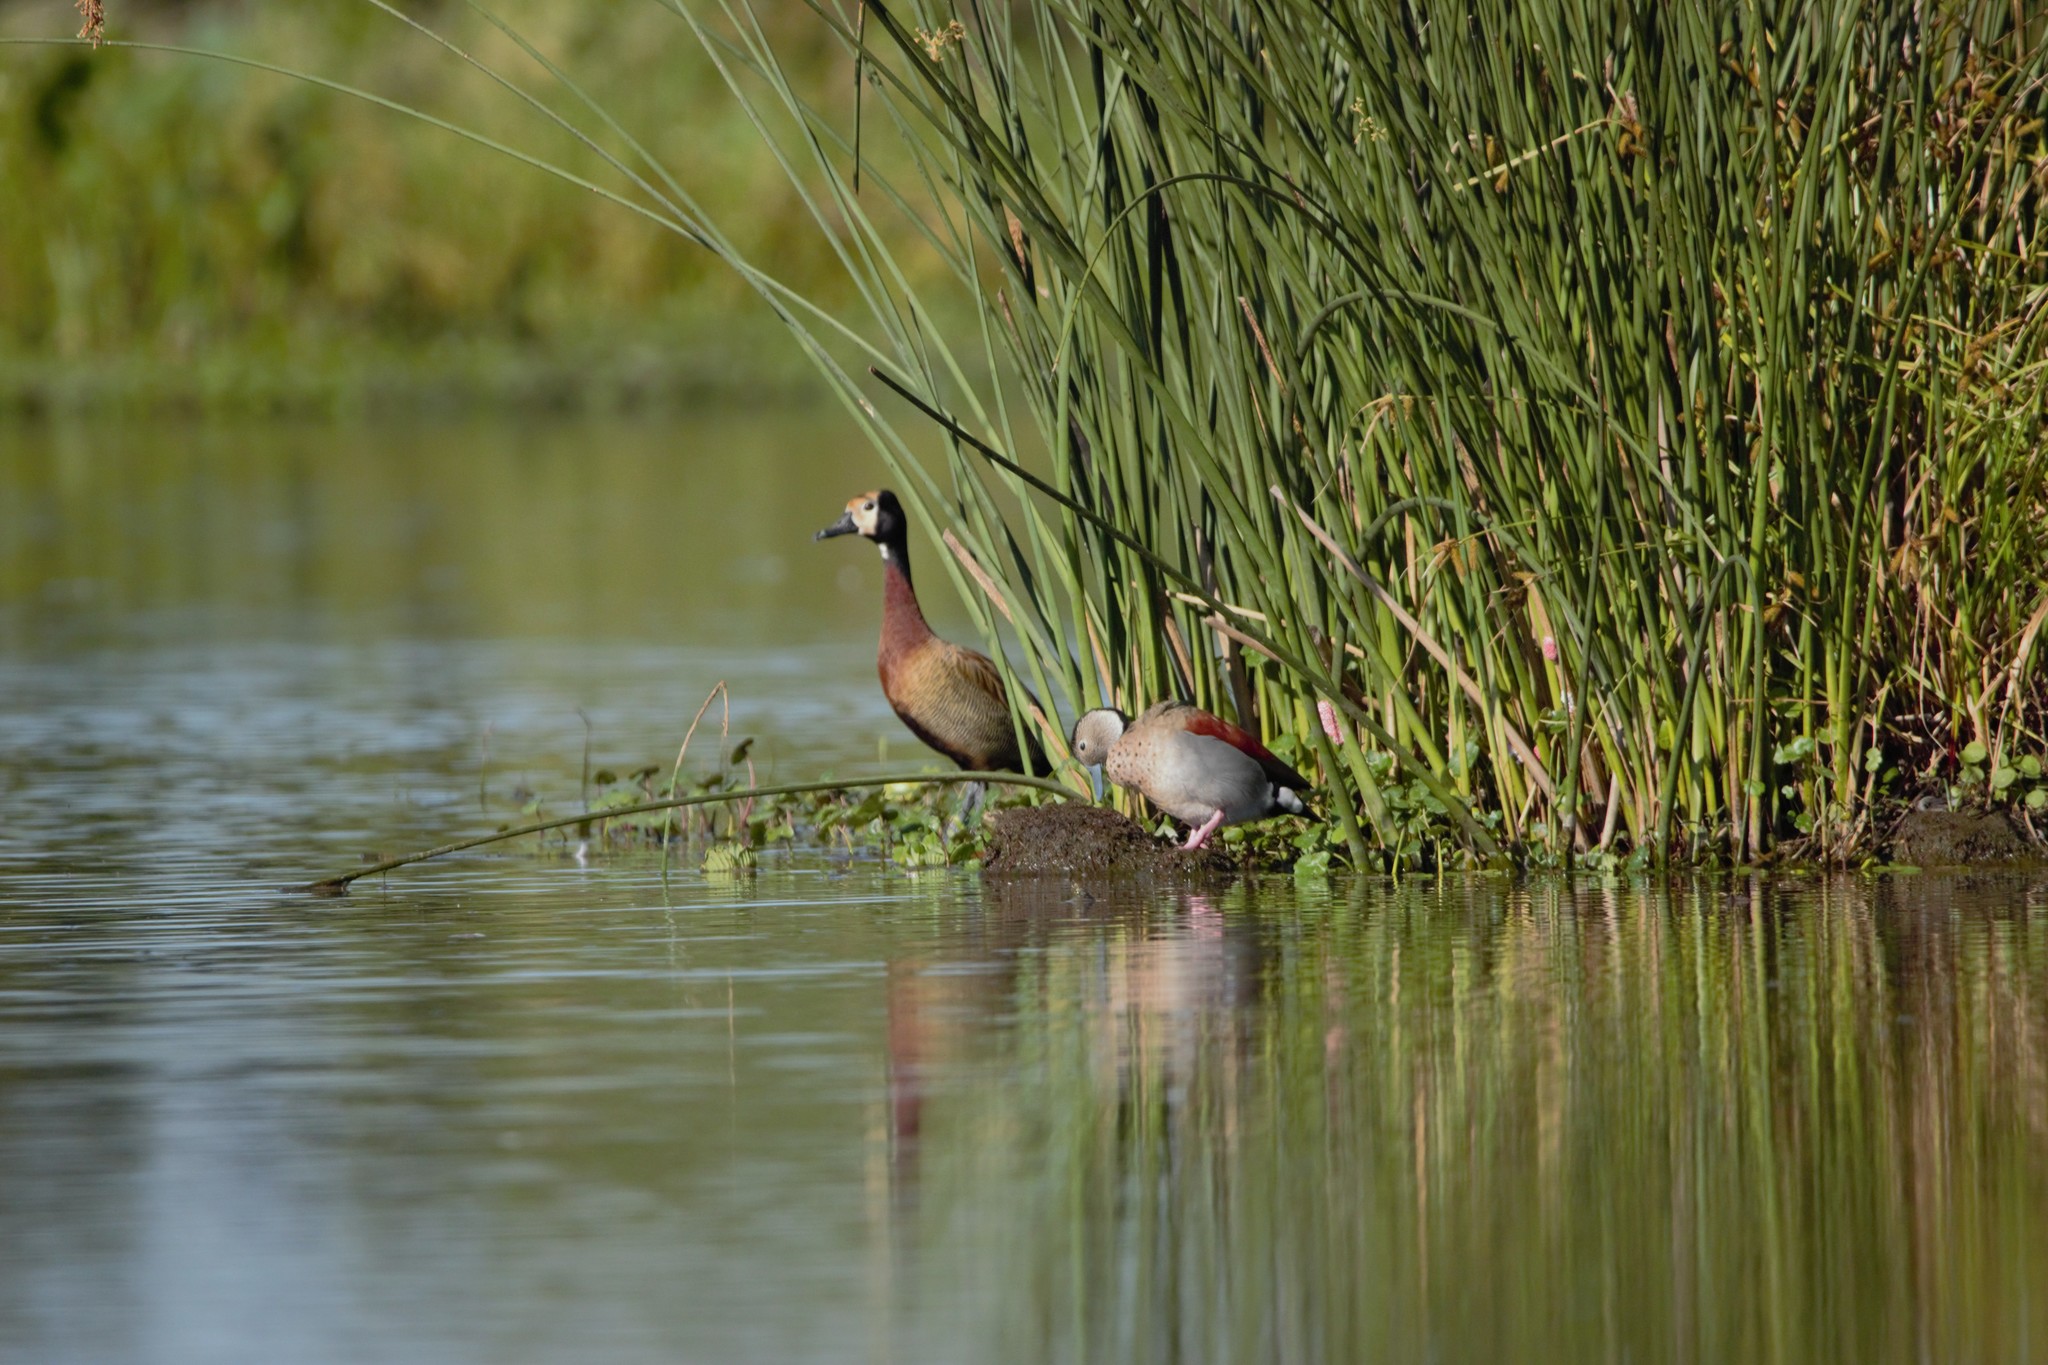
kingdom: Animalia
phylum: Chordata
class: Aves
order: Anseriformes
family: Anatidae
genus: Dendrocygna
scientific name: Dendrocygna viduata
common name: White-faced whistling duck
